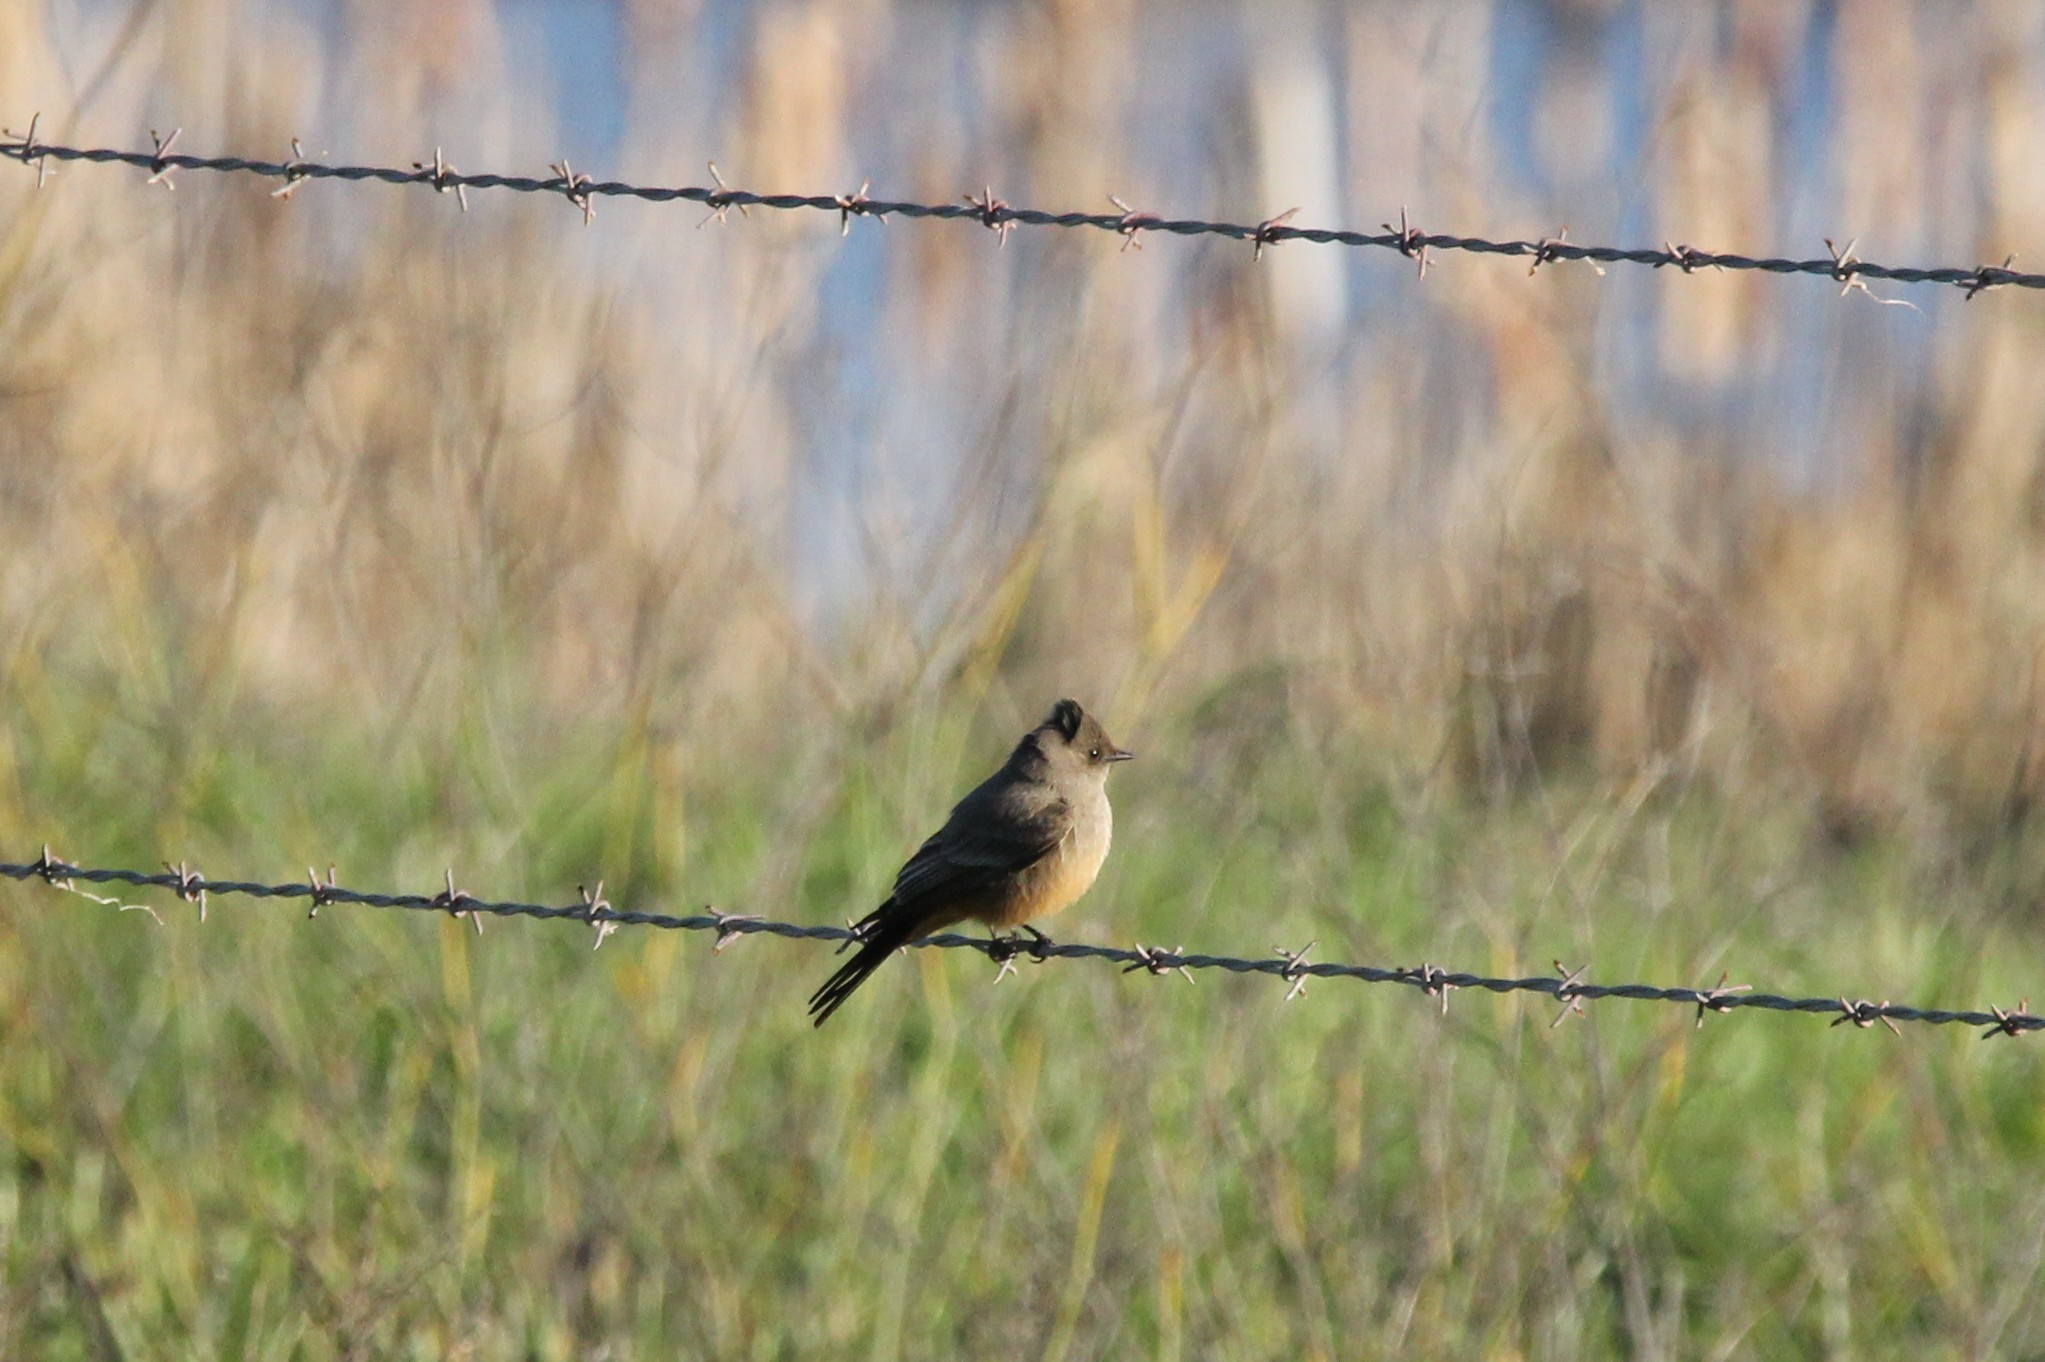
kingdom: Animalia
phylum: Chordata
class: Aves
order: Passeriformes
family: Tyrannidae
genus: Sayornis
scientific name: Sayornis saya
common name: Say's phoebe
